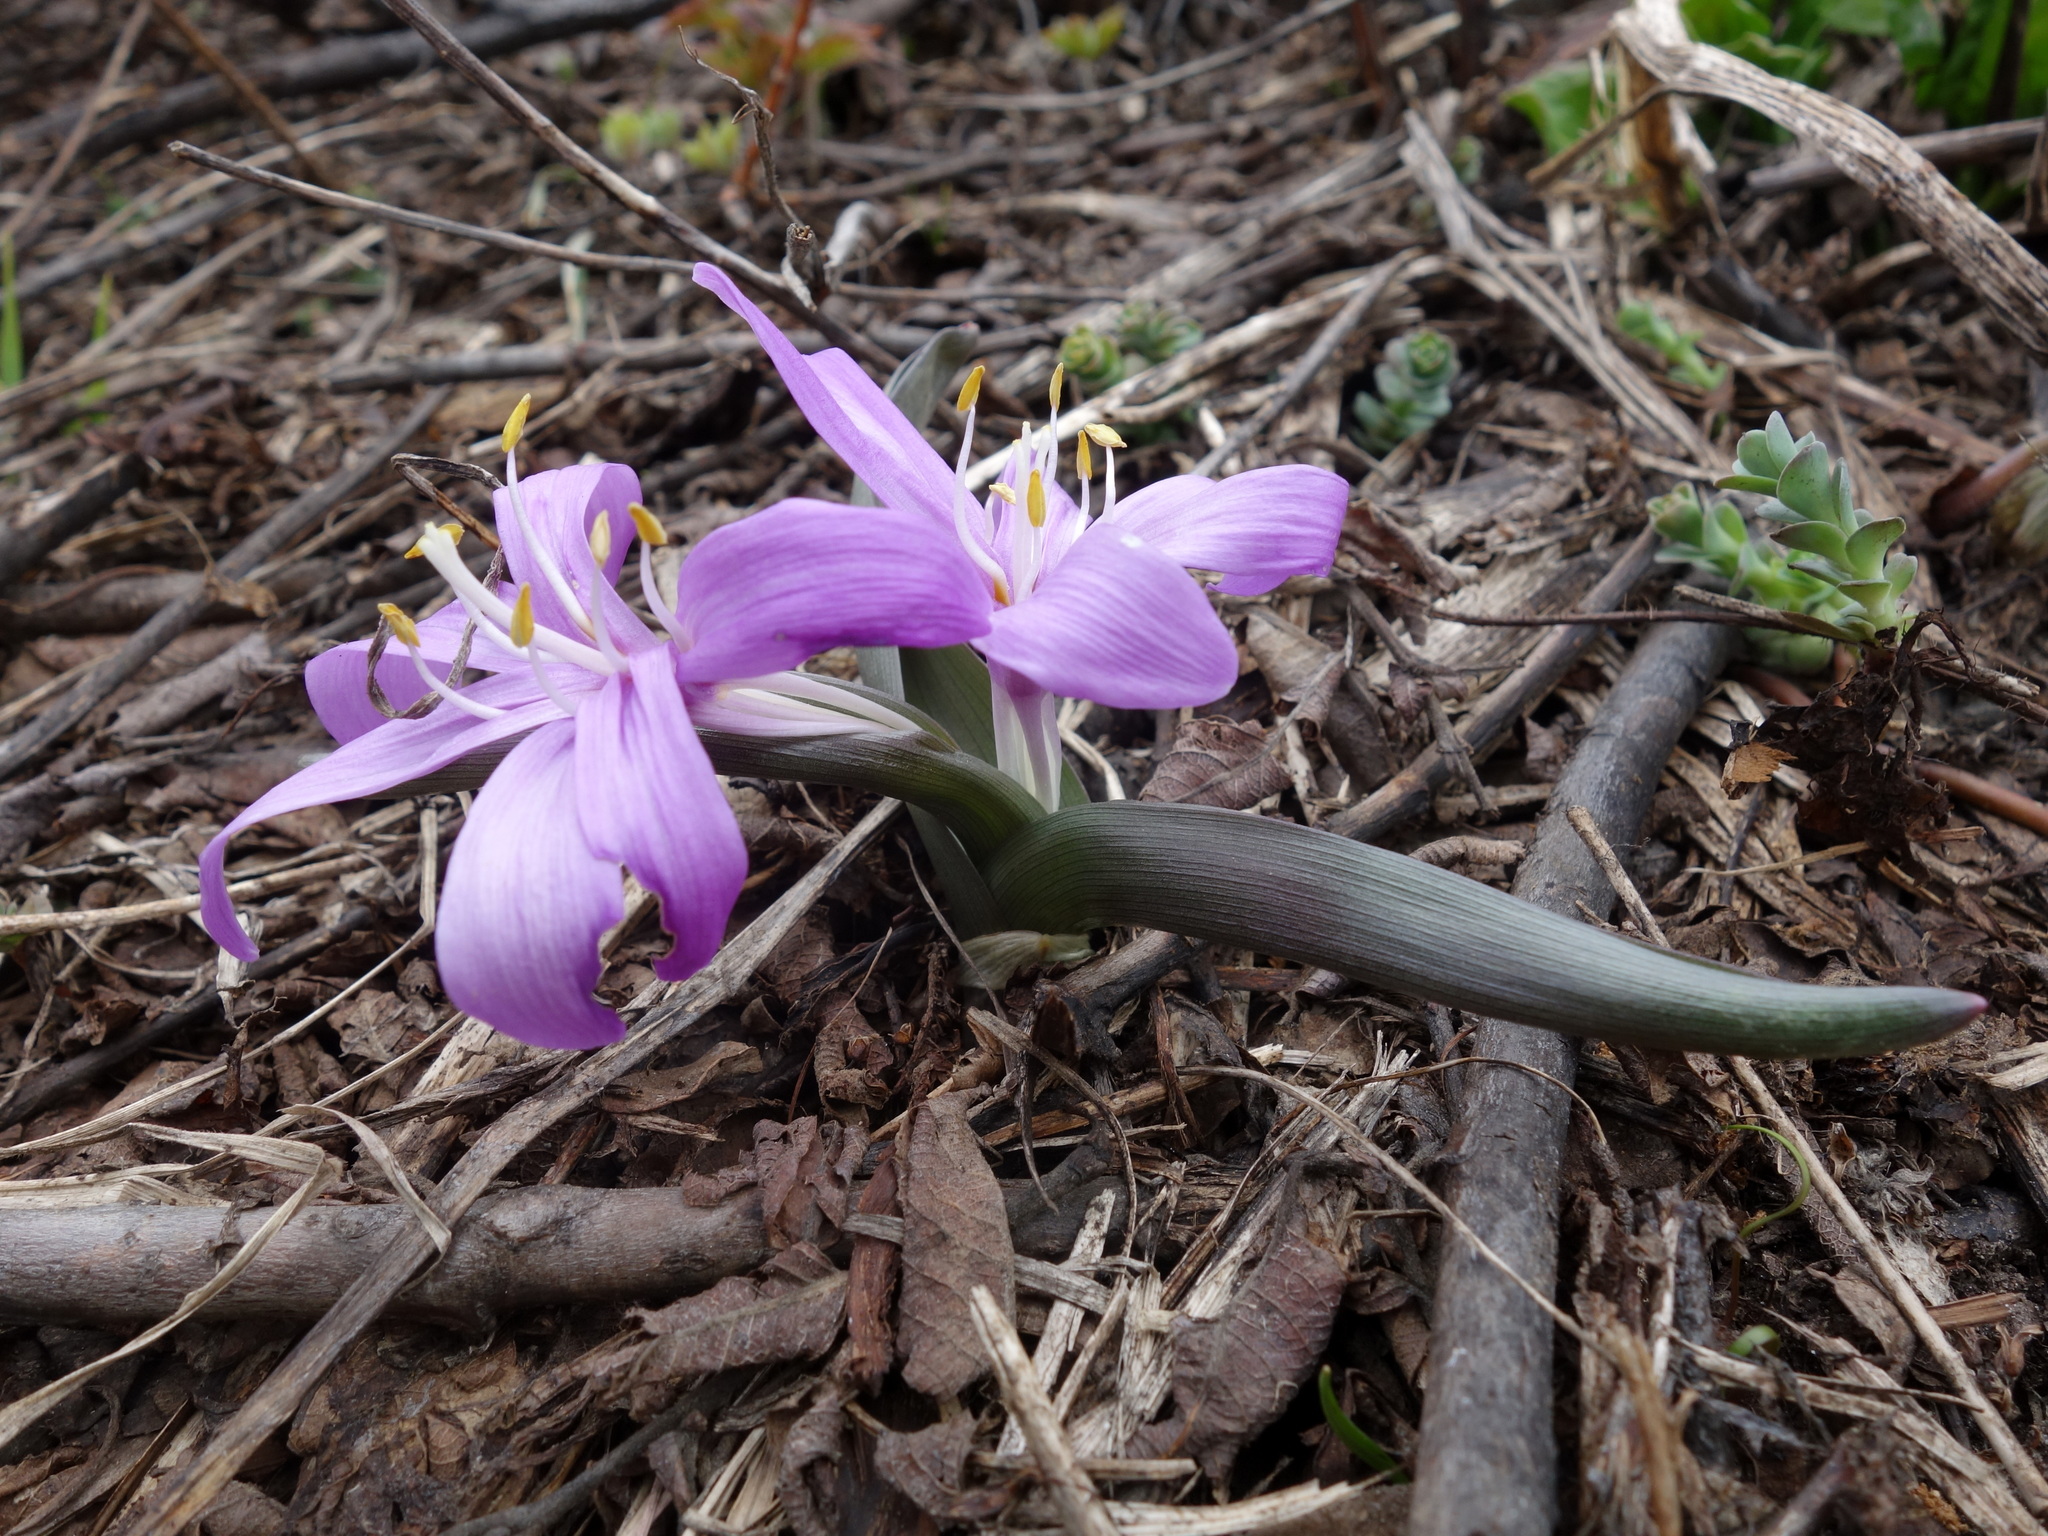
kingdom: Plantae
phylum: Tracheophyta
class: Liliopsida
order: Liliales
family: Colchicaceae
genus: Colchicum
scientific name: Colchicum bulbocodium
